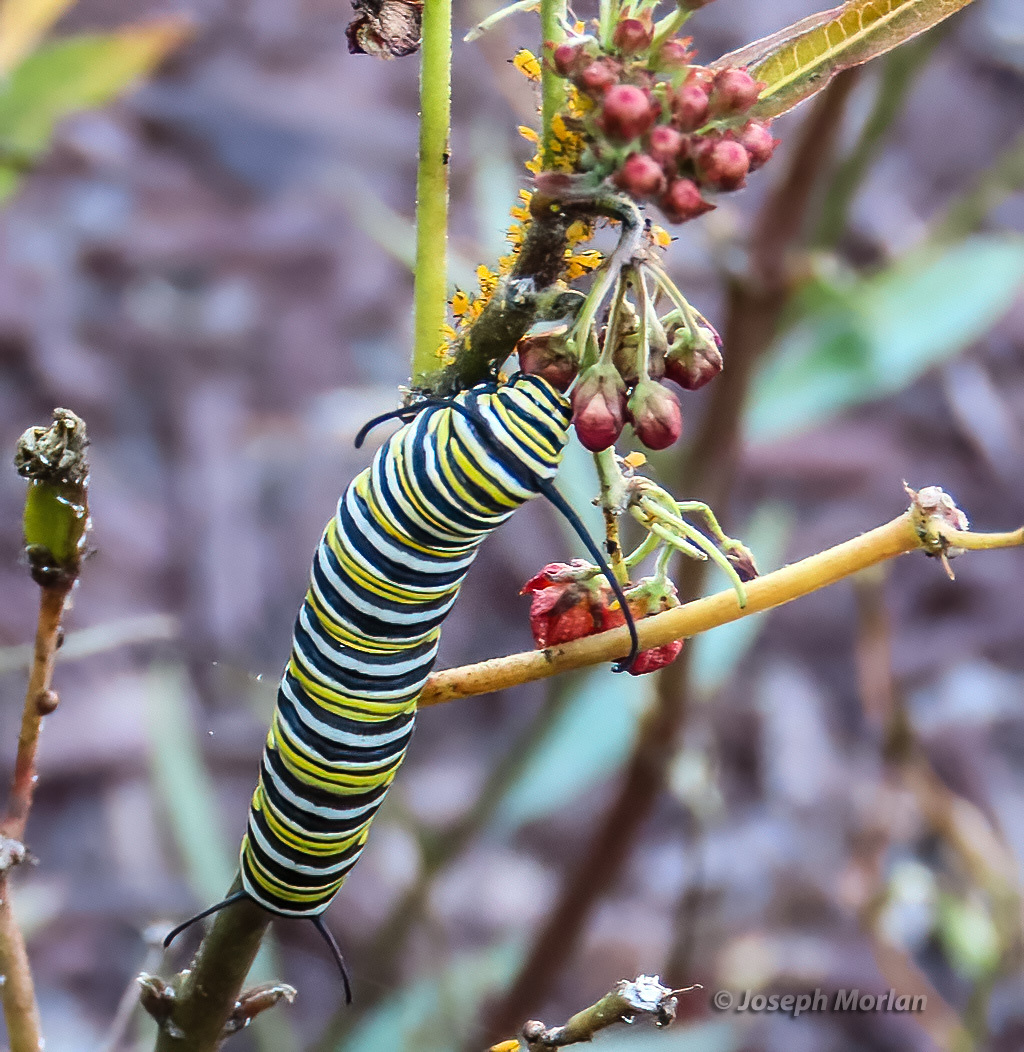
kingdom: Animalia
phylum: Arthropoda
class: Insecta
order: Lepidoptera
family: Nymphalidae
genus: Danaus
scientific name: Danaus plexippus
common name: Monarch
